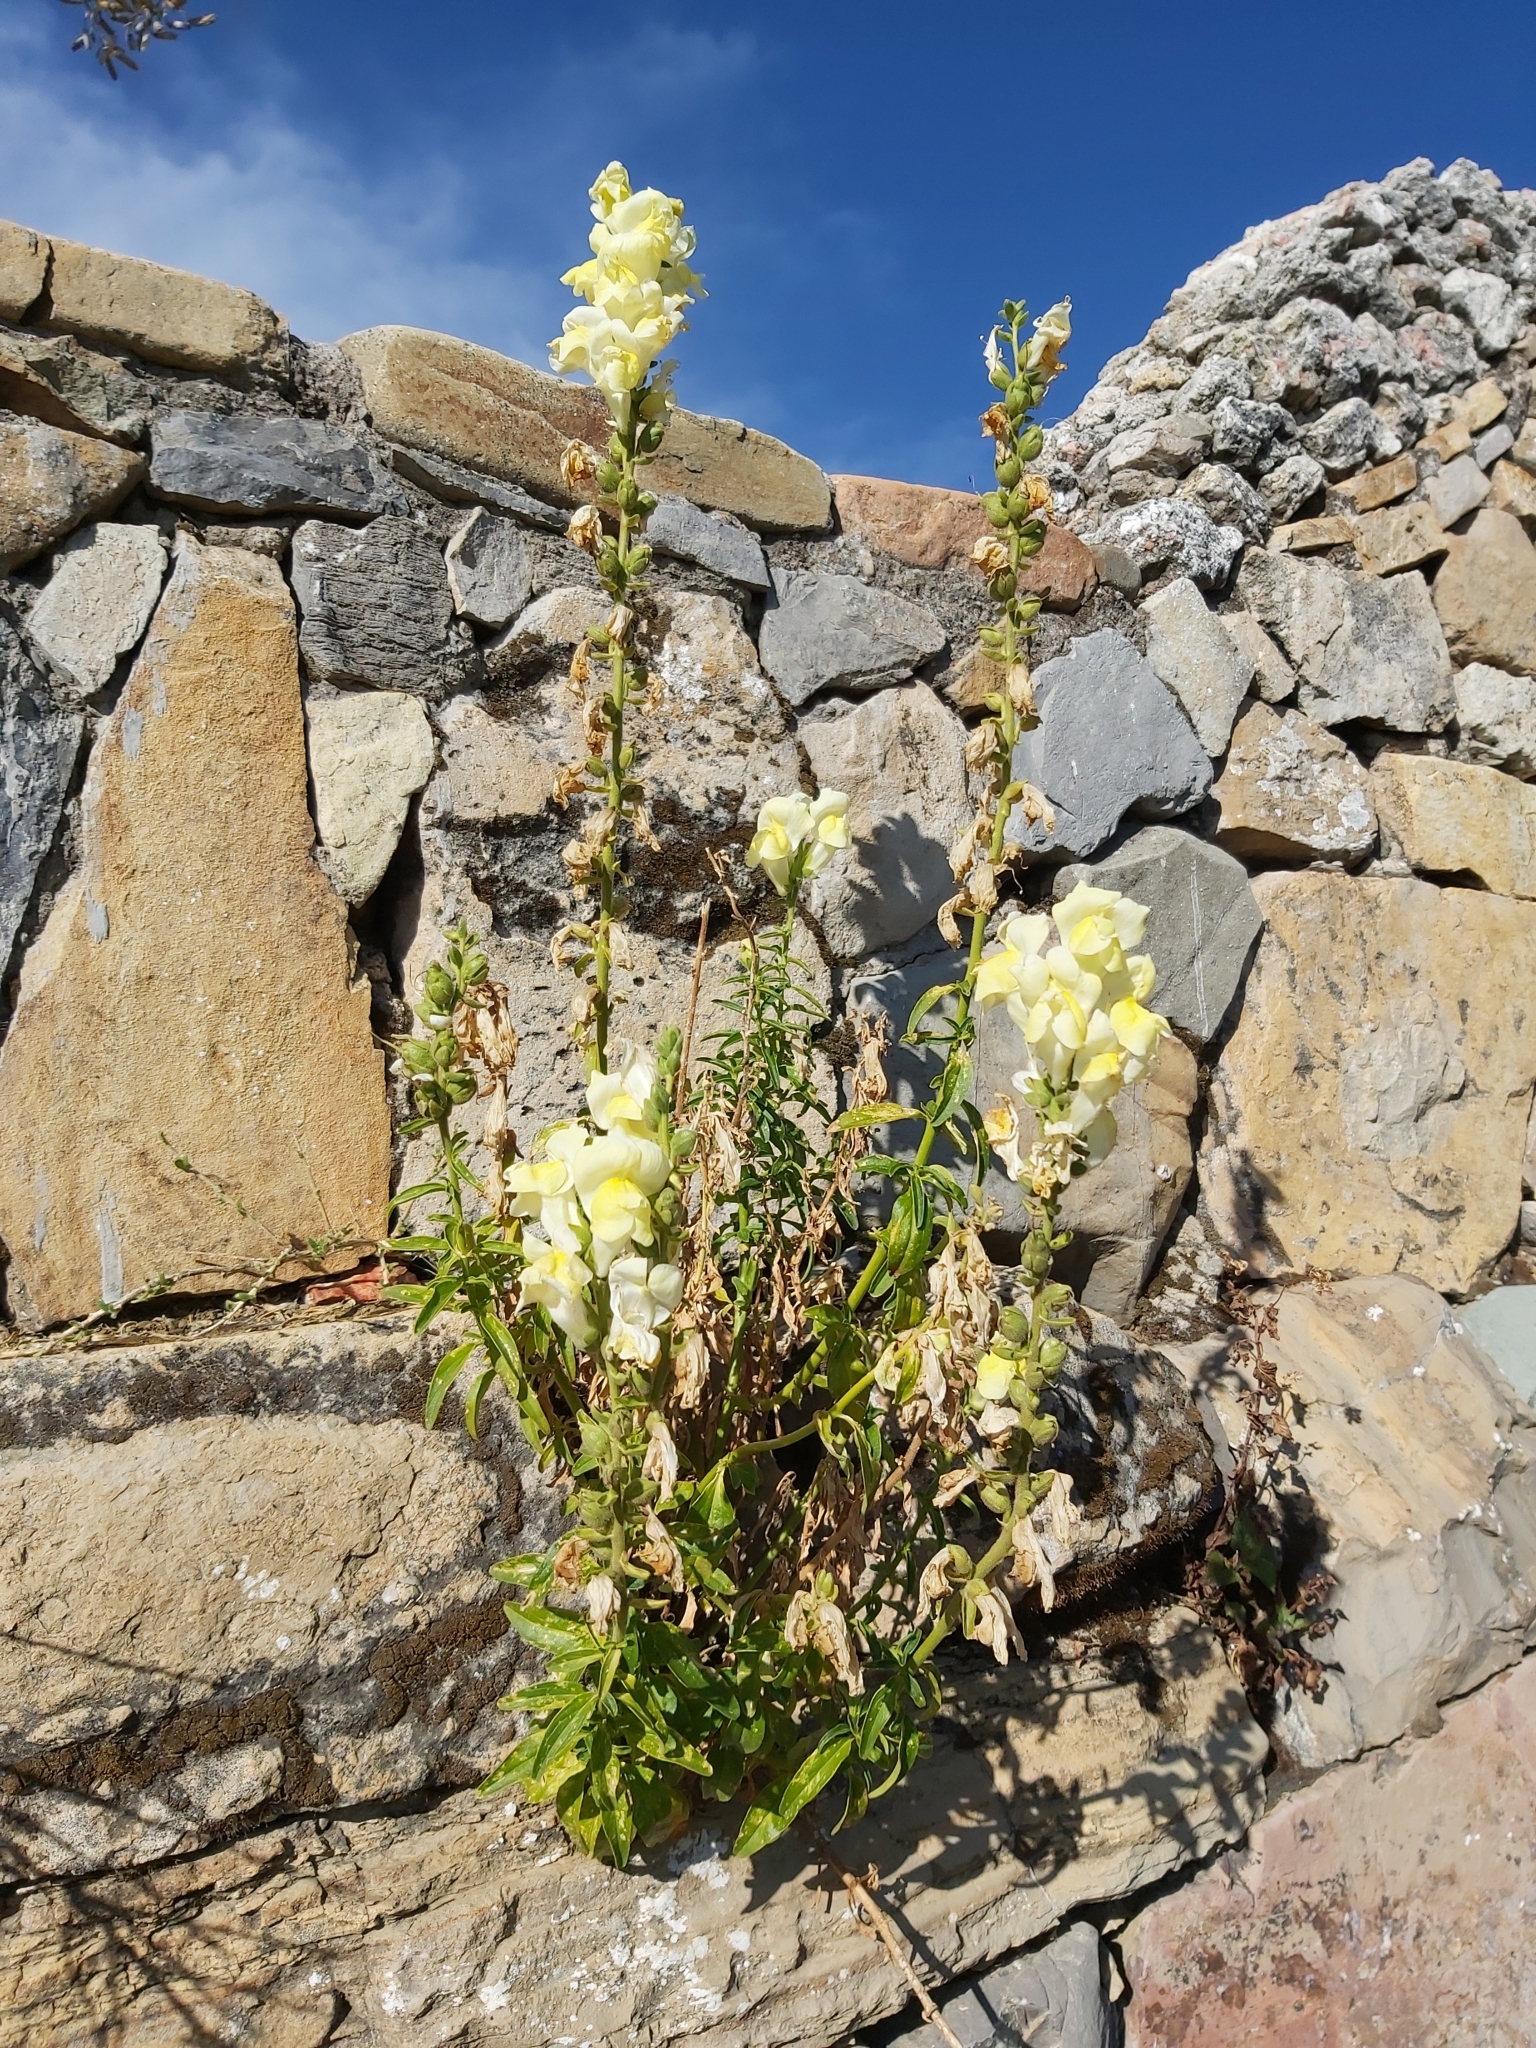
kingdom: Plantae
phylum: Tracheophyta
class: Magnoliopsida
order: Lamiales
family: Plantaginaceae
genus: Antirrhinum
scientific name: Antirrhinum majus
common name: Snapdragon
